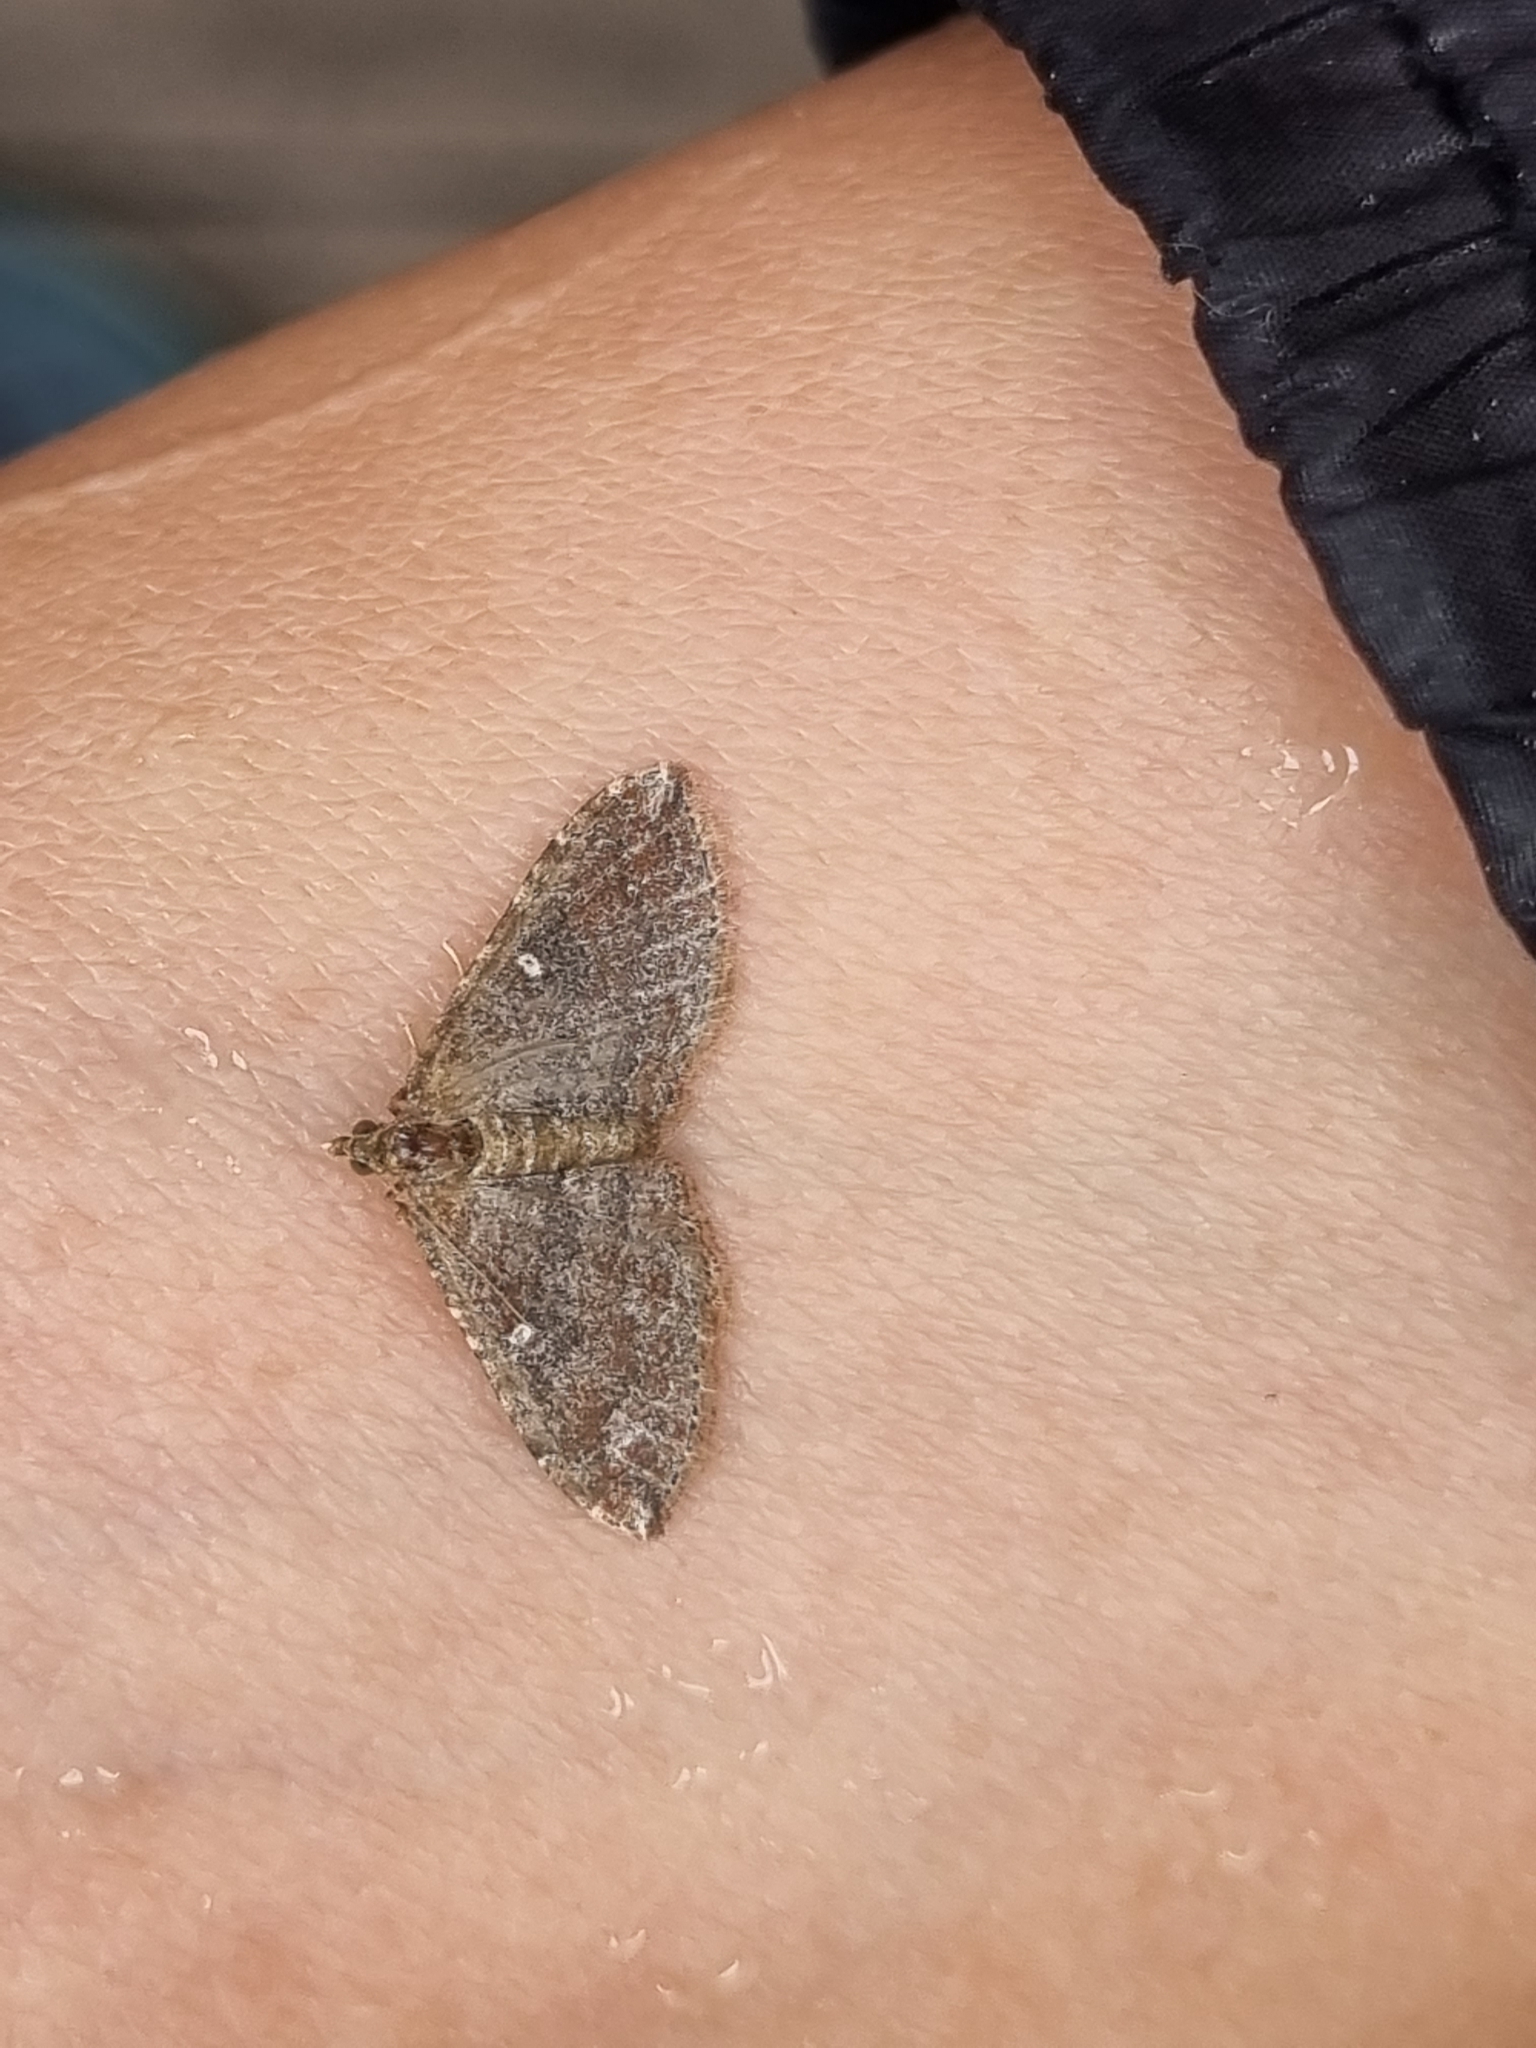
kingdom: Animalia
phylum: Arthropoda
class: Insecta
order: Lepidoptera
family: Geometridae
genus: Orthonama
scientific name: Orthonama obstipata
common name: The gem
